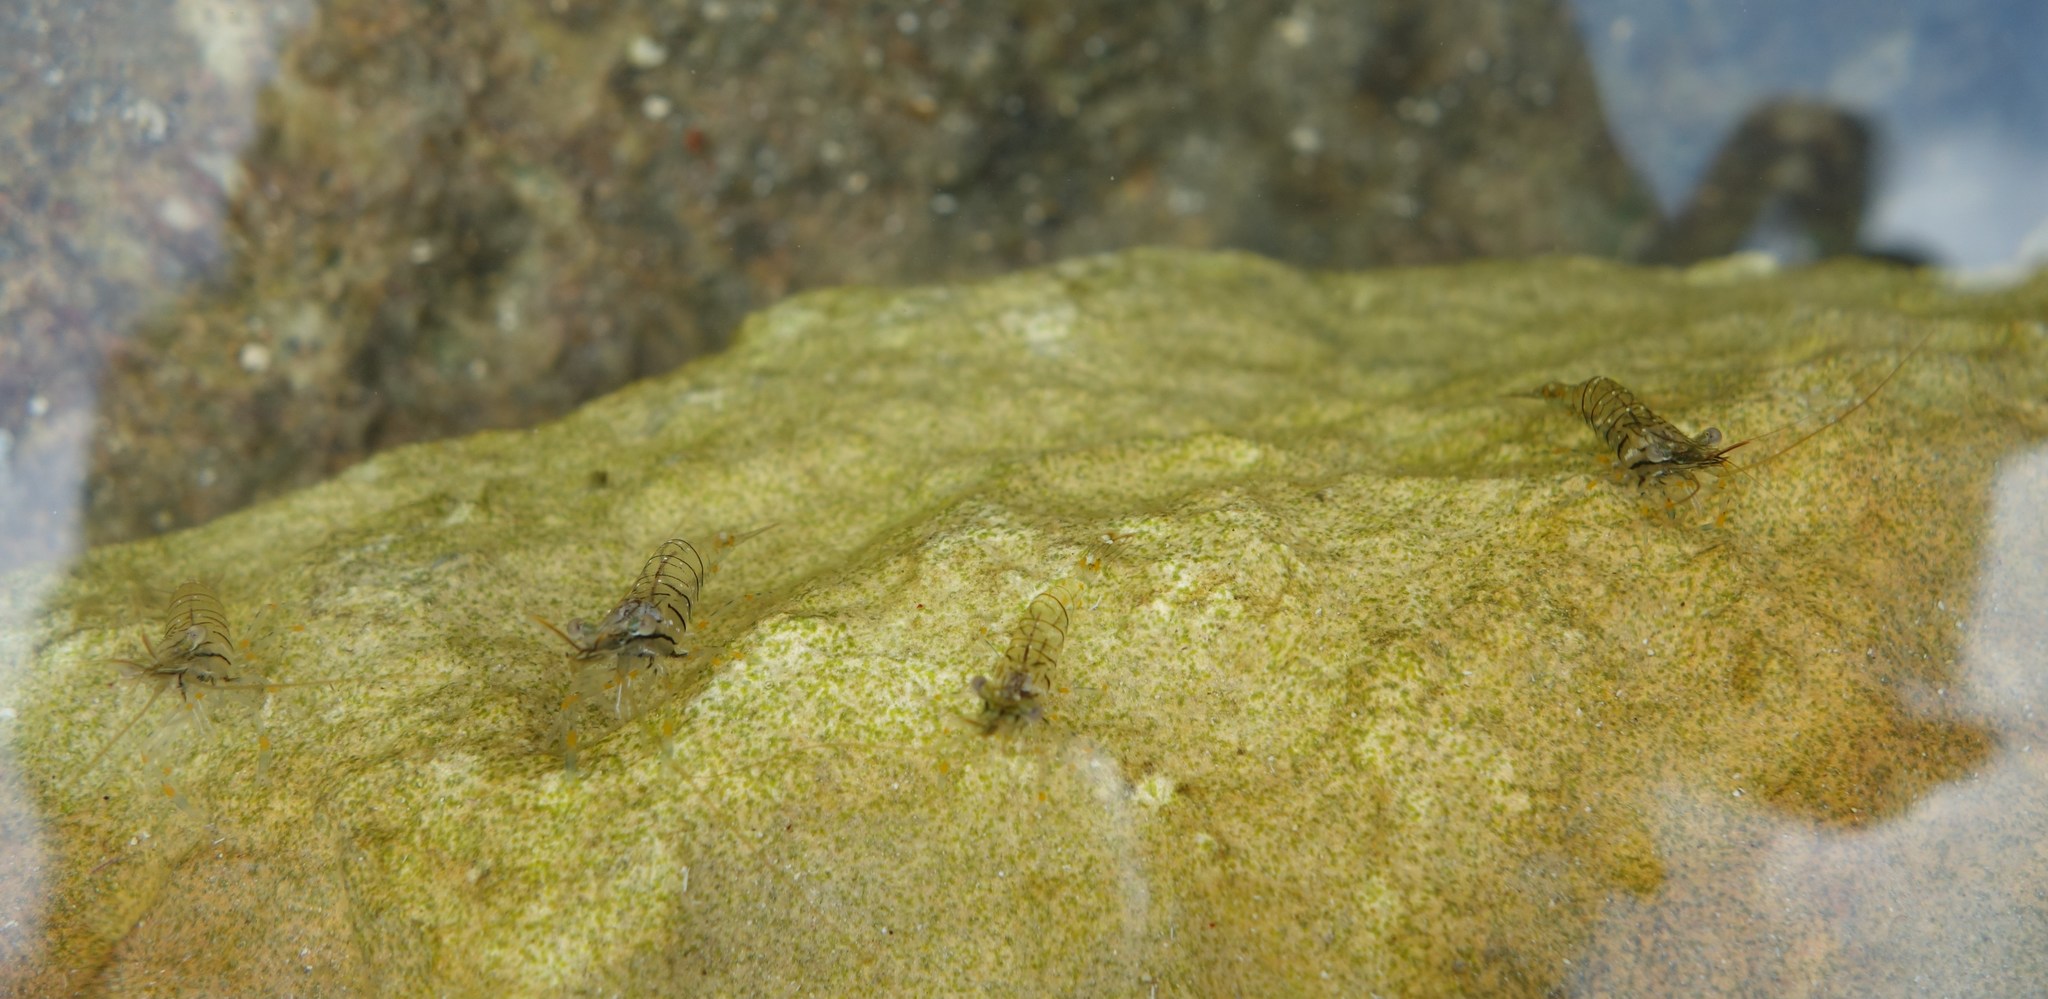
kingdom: Animalia
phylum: Arthropoda
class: Malacostraca
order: Decapoda
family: Palaemonidae
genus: Palaemon
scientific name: Palaemon elegans
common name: Grass prawm
